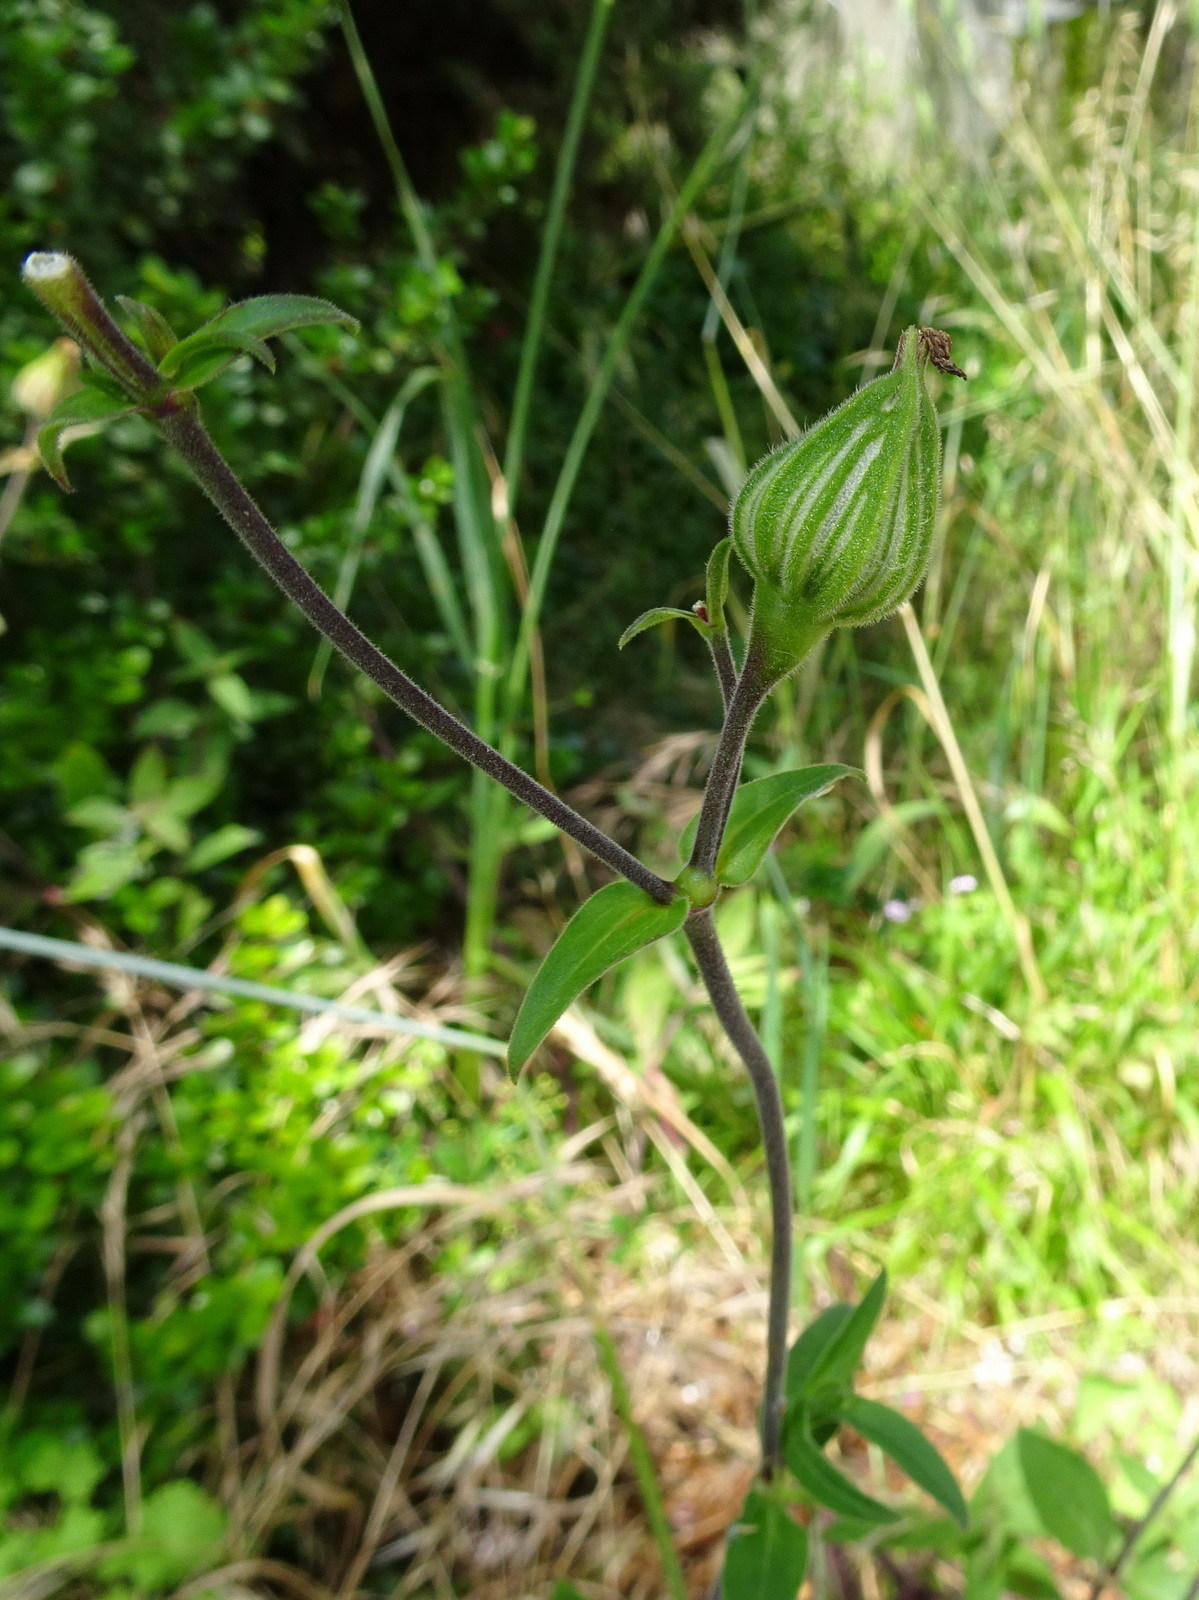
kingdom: Plantae
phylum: Tracheophyta
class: Magnoliopsida
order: Caryophyllales
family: Caryophyllaceae
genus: Silene
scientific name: Silene latifolia
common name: White campion
